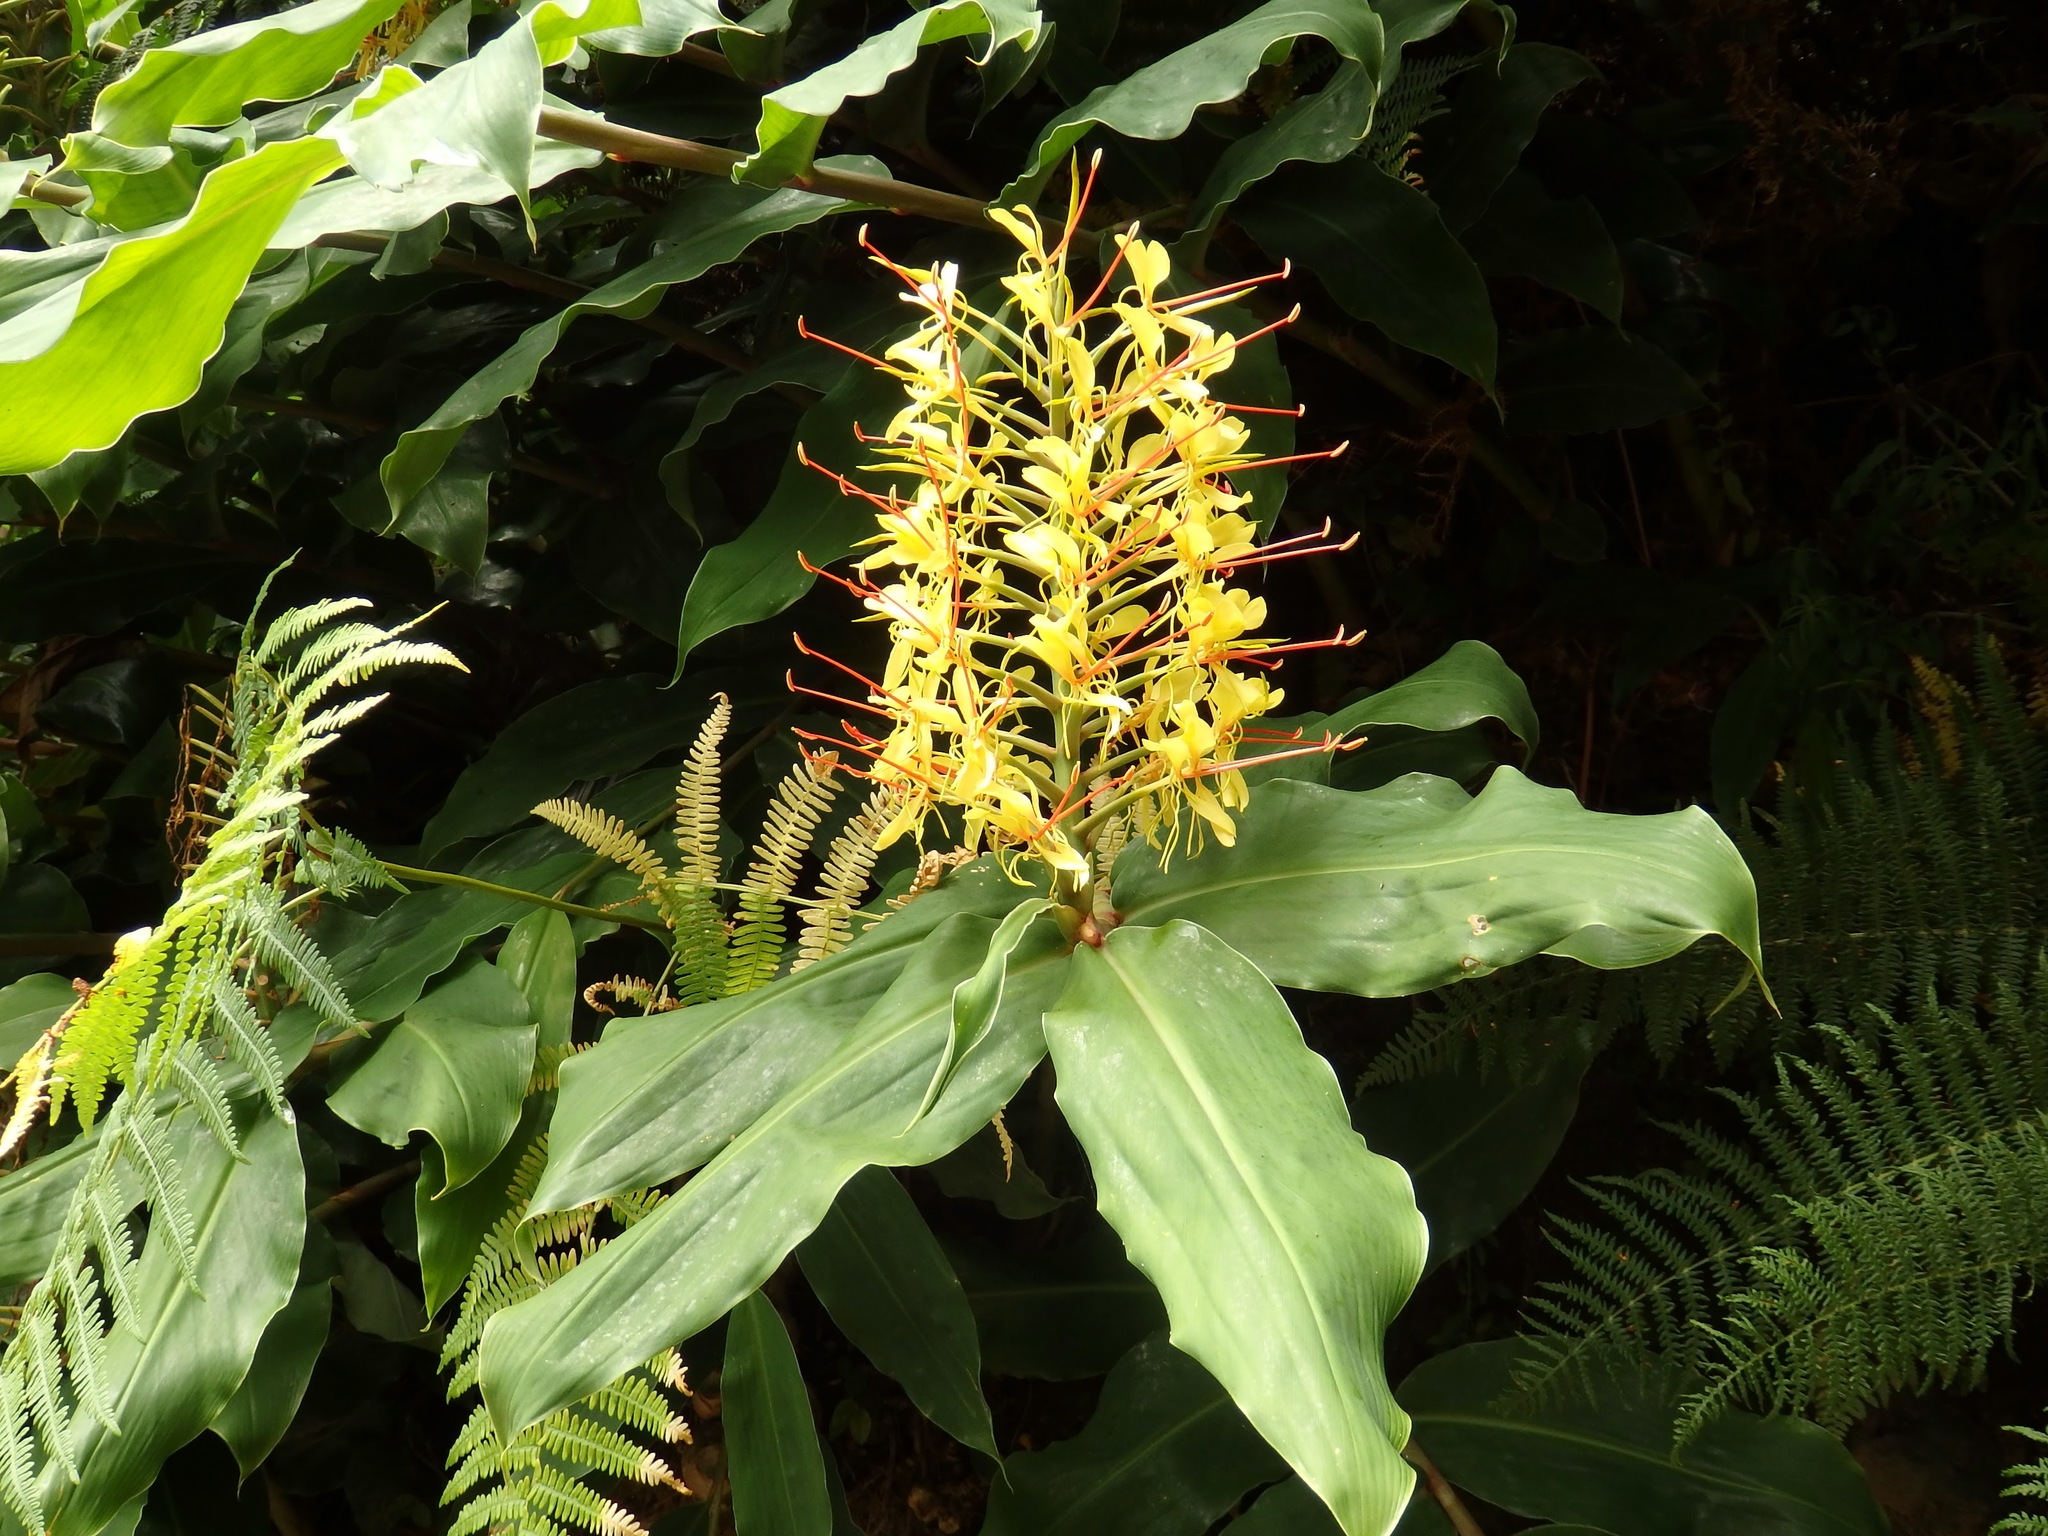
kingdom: Plantae
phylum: Tracheophyta
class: Liliopsida
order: Zingiberales
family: Zingiberaceae
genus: Hedychium
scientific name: Hedychium gardnerianum
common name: Himalayan ginger
